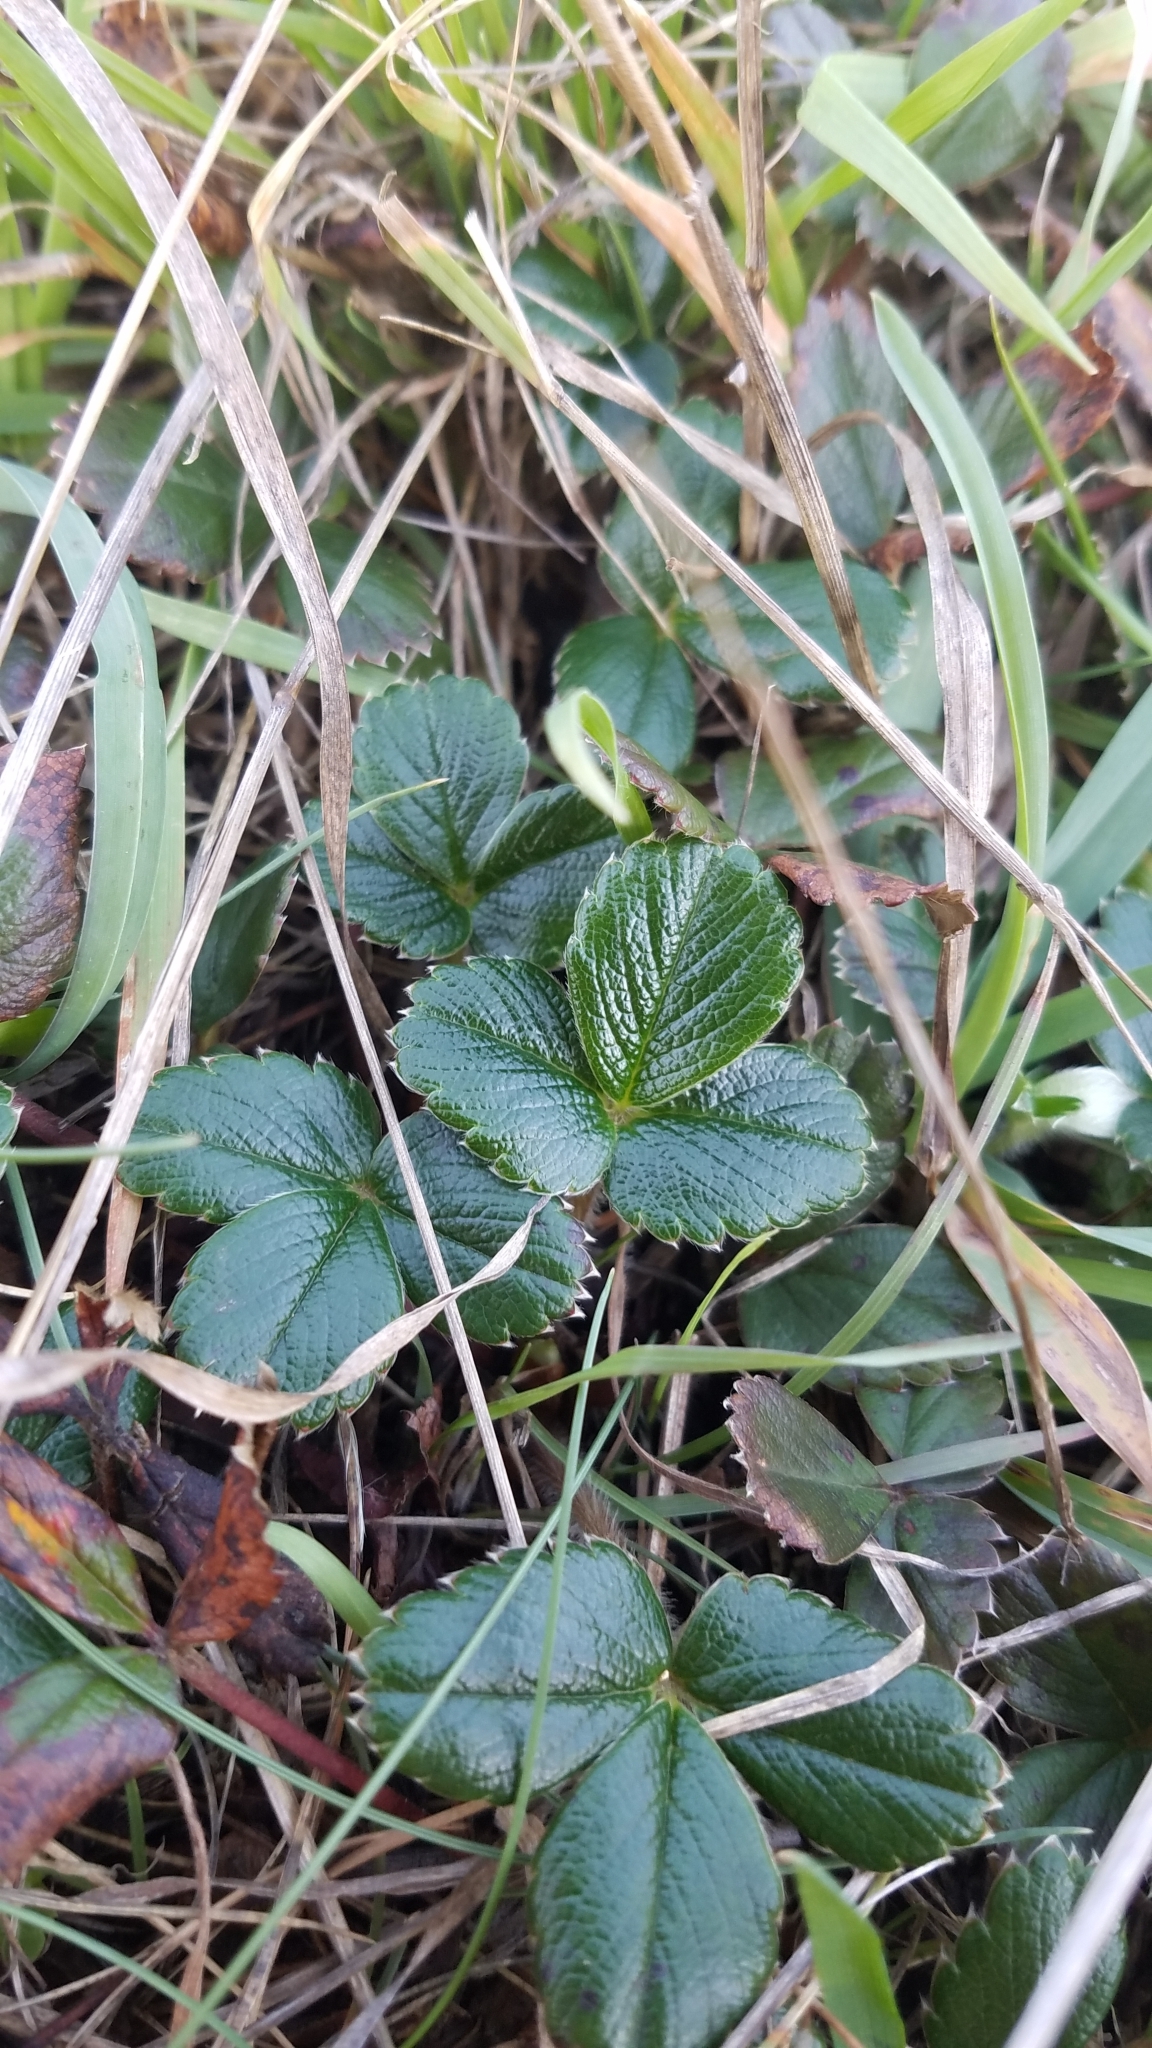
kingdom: Plantae
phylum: Tracheophyta
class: Magnoliopsida
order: Rosales
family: Rosaceae
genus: Fragaria
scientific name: Fragaria chiloensis
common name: Beach strawberry
